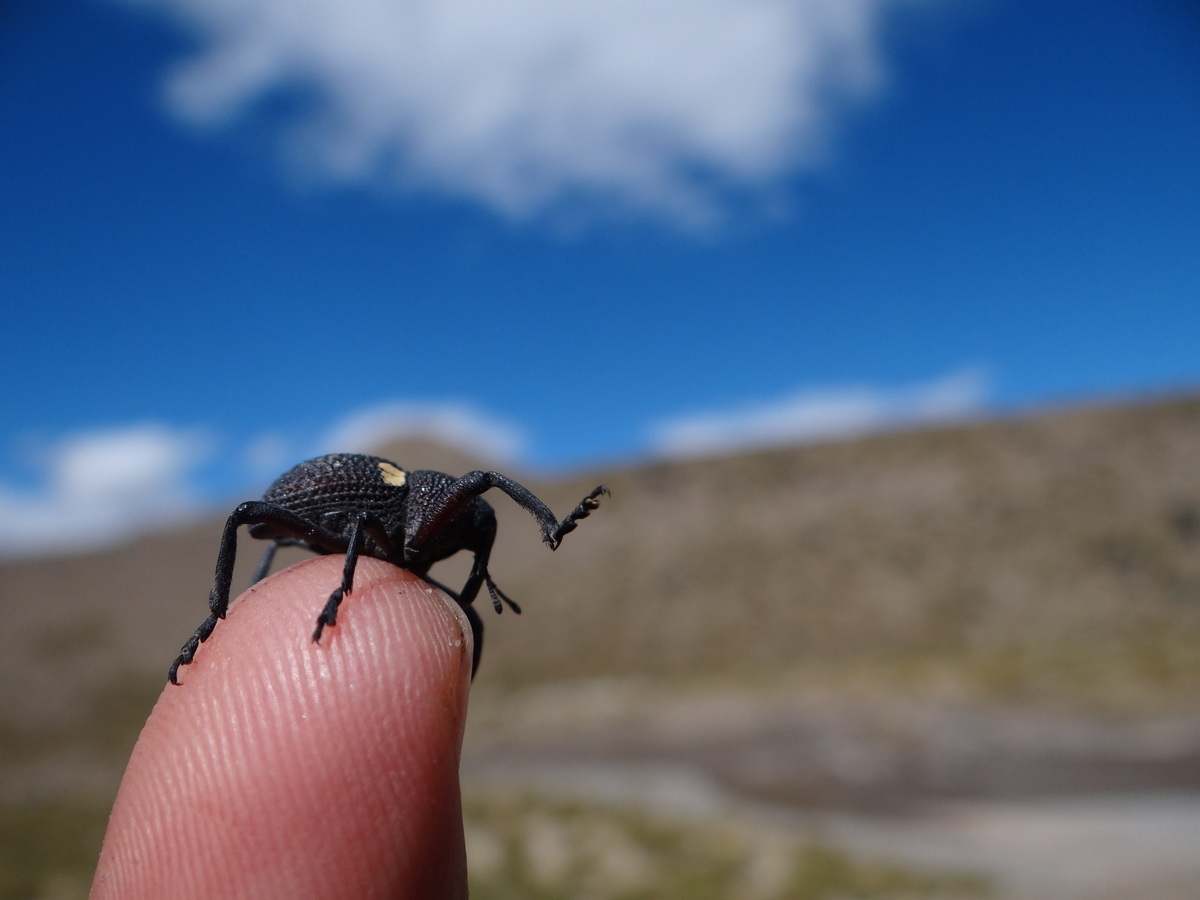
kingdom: Animalia
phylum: Arthropoda
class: Insecta
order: Coleoptera
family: Curculionidae
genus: Rhyephenes
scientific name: Rhyephenes gayi
